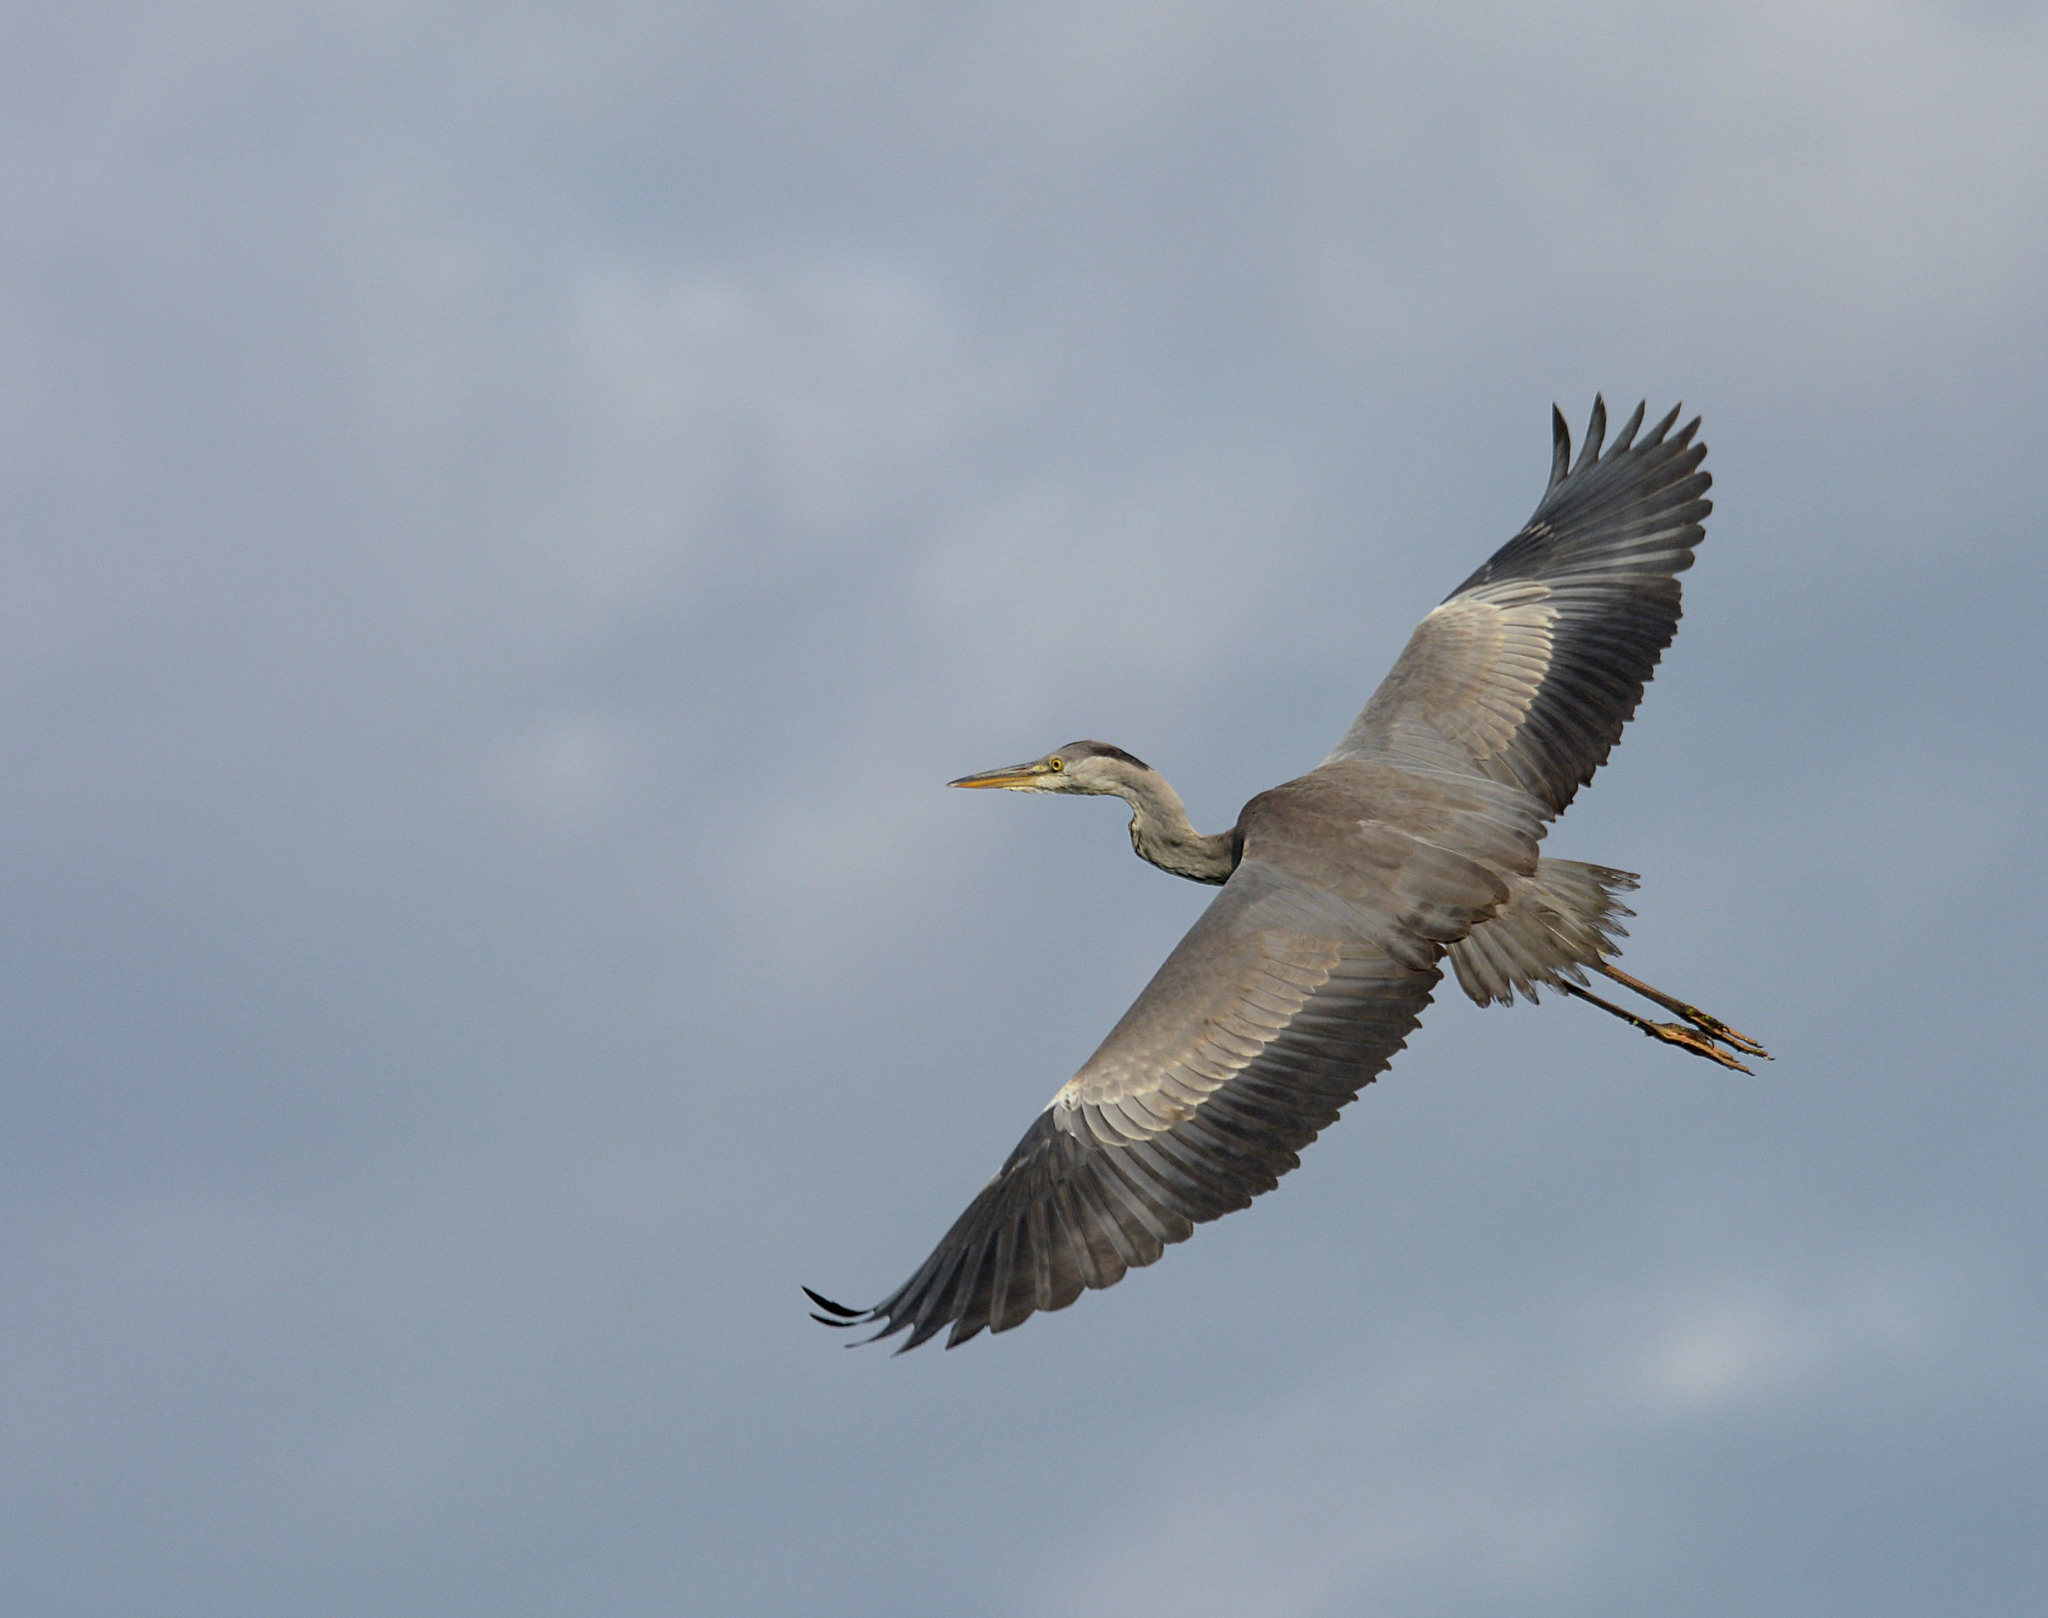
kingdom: Animalia
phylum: Chordata
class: Aves
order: Pelecaniformes
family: Ardeidae
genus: Ardea
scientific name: Ardea cinerea
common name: Grey heron
